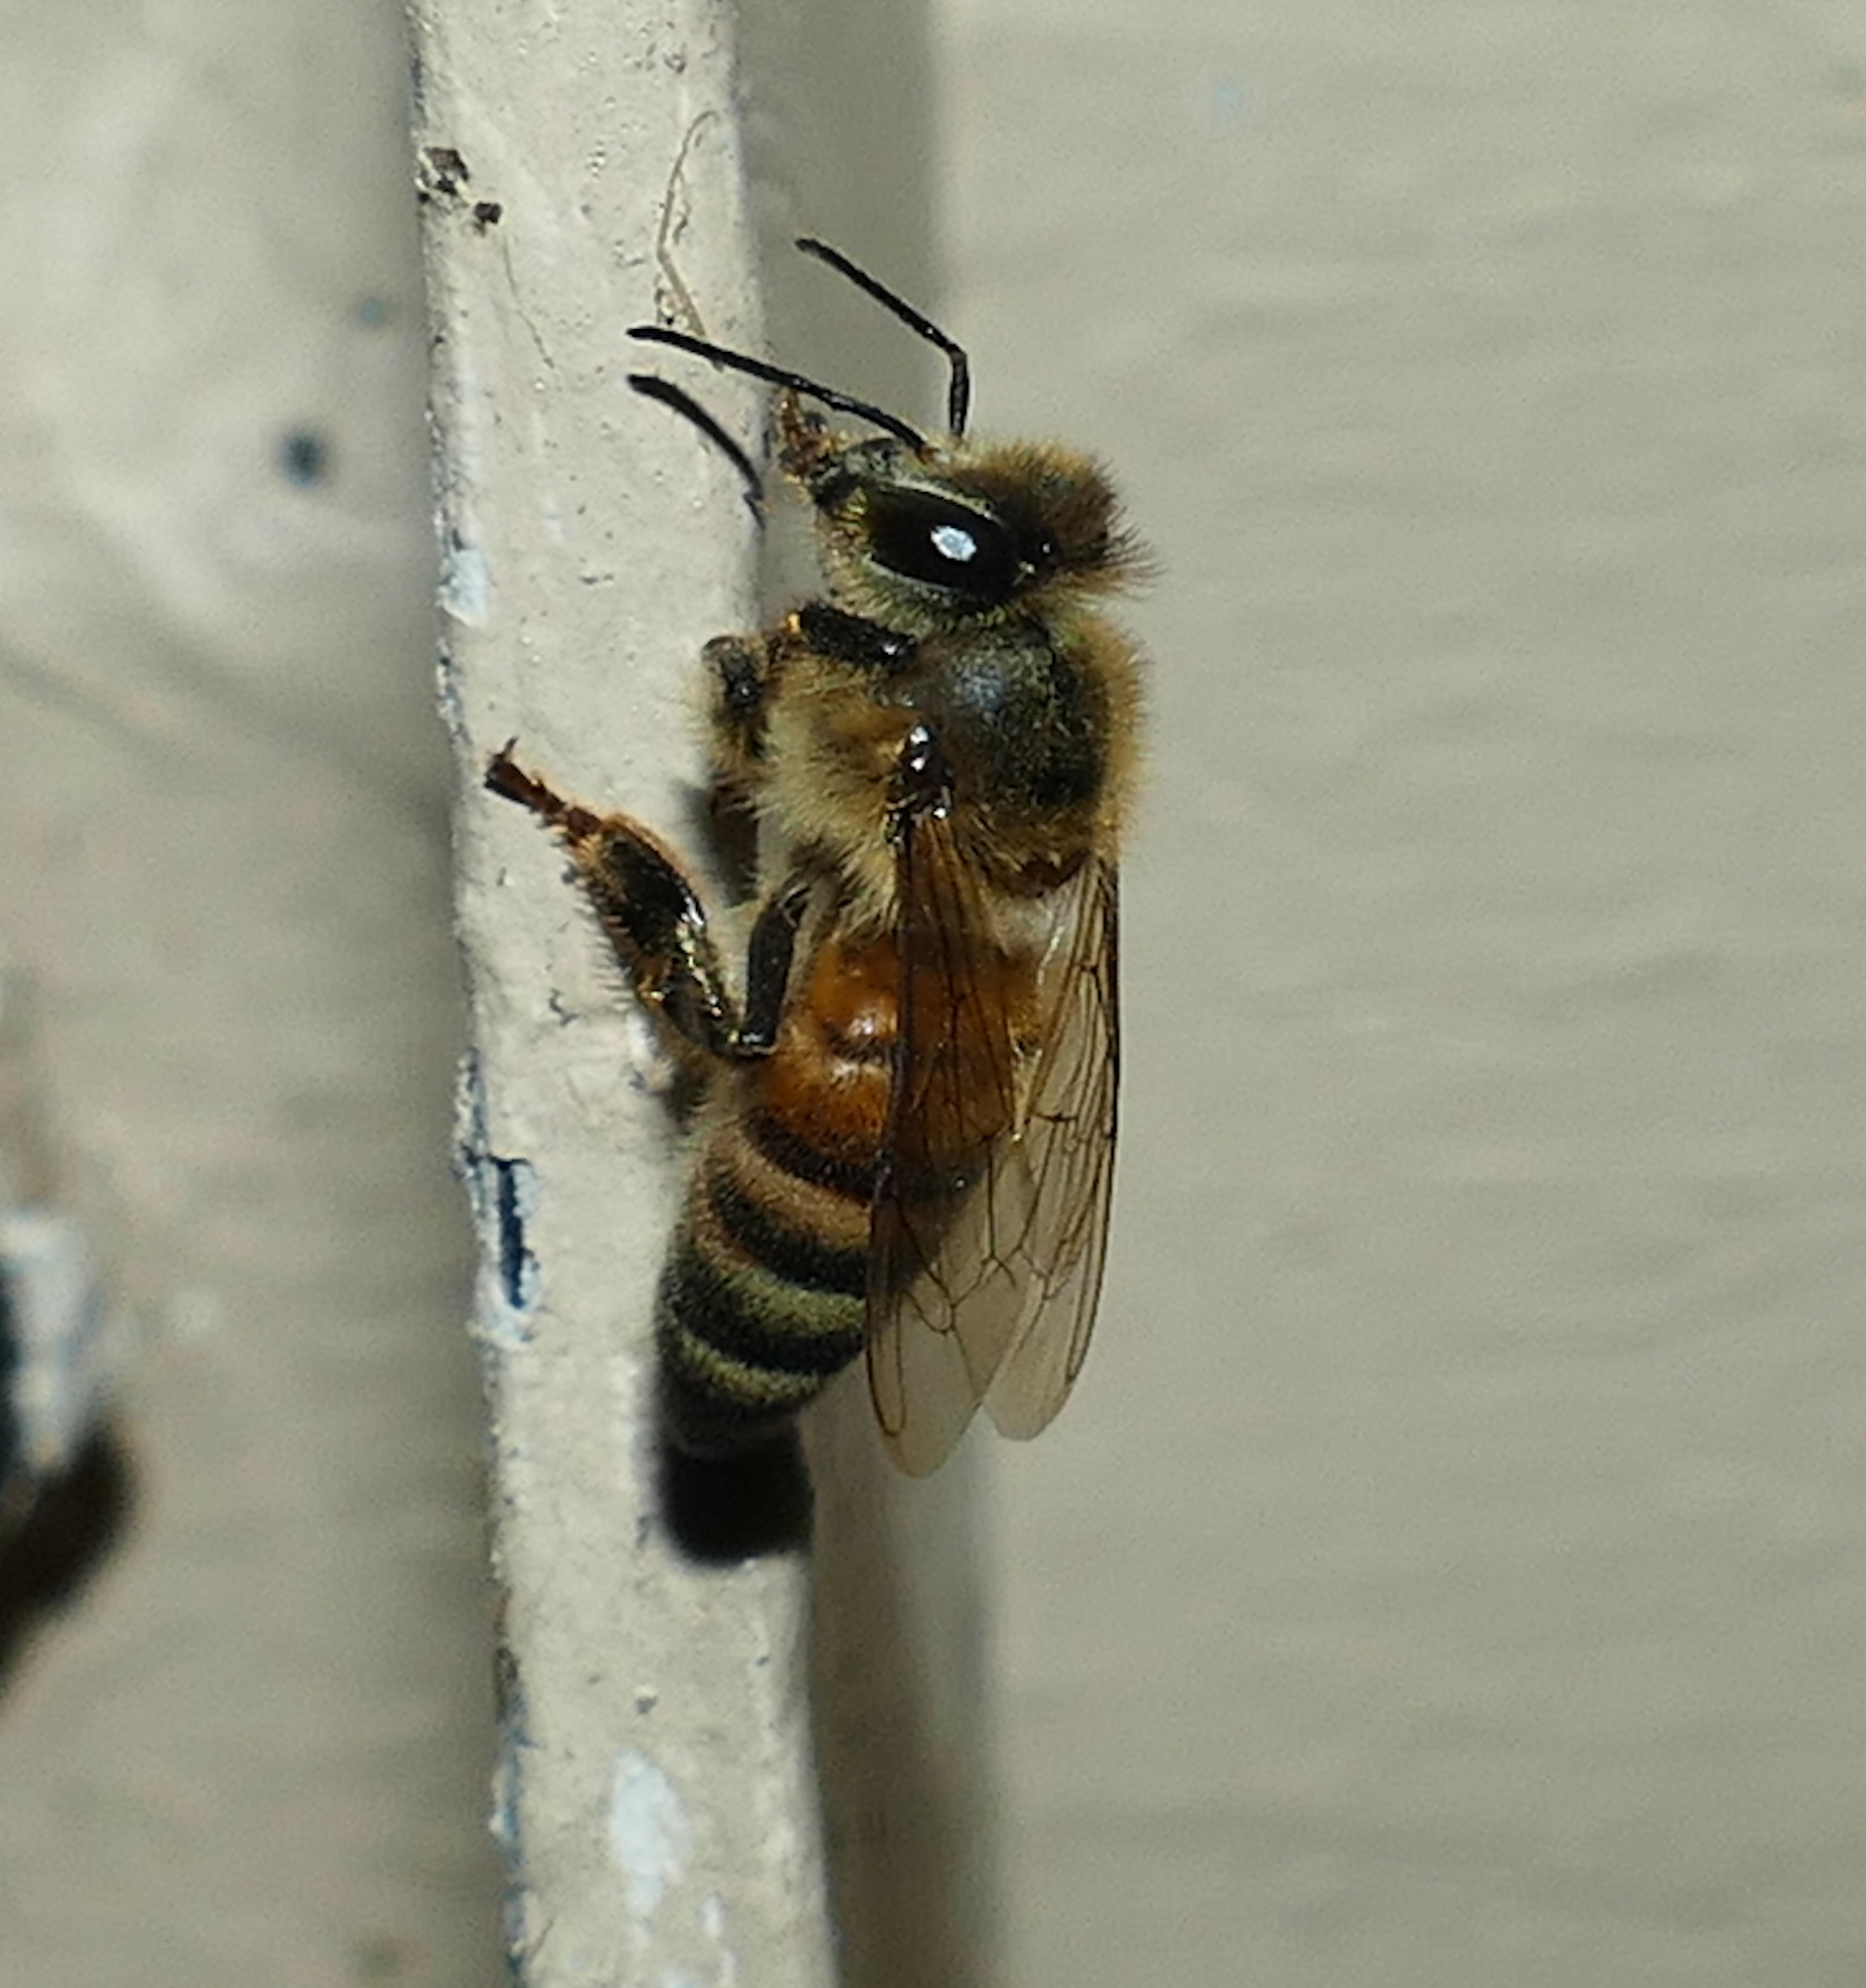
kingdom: Animalia
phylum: Arthropoda
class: Insecta
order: Hymenoptera
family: Apidae
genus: Apis
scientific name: Apis mellifera
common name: Honey bee
